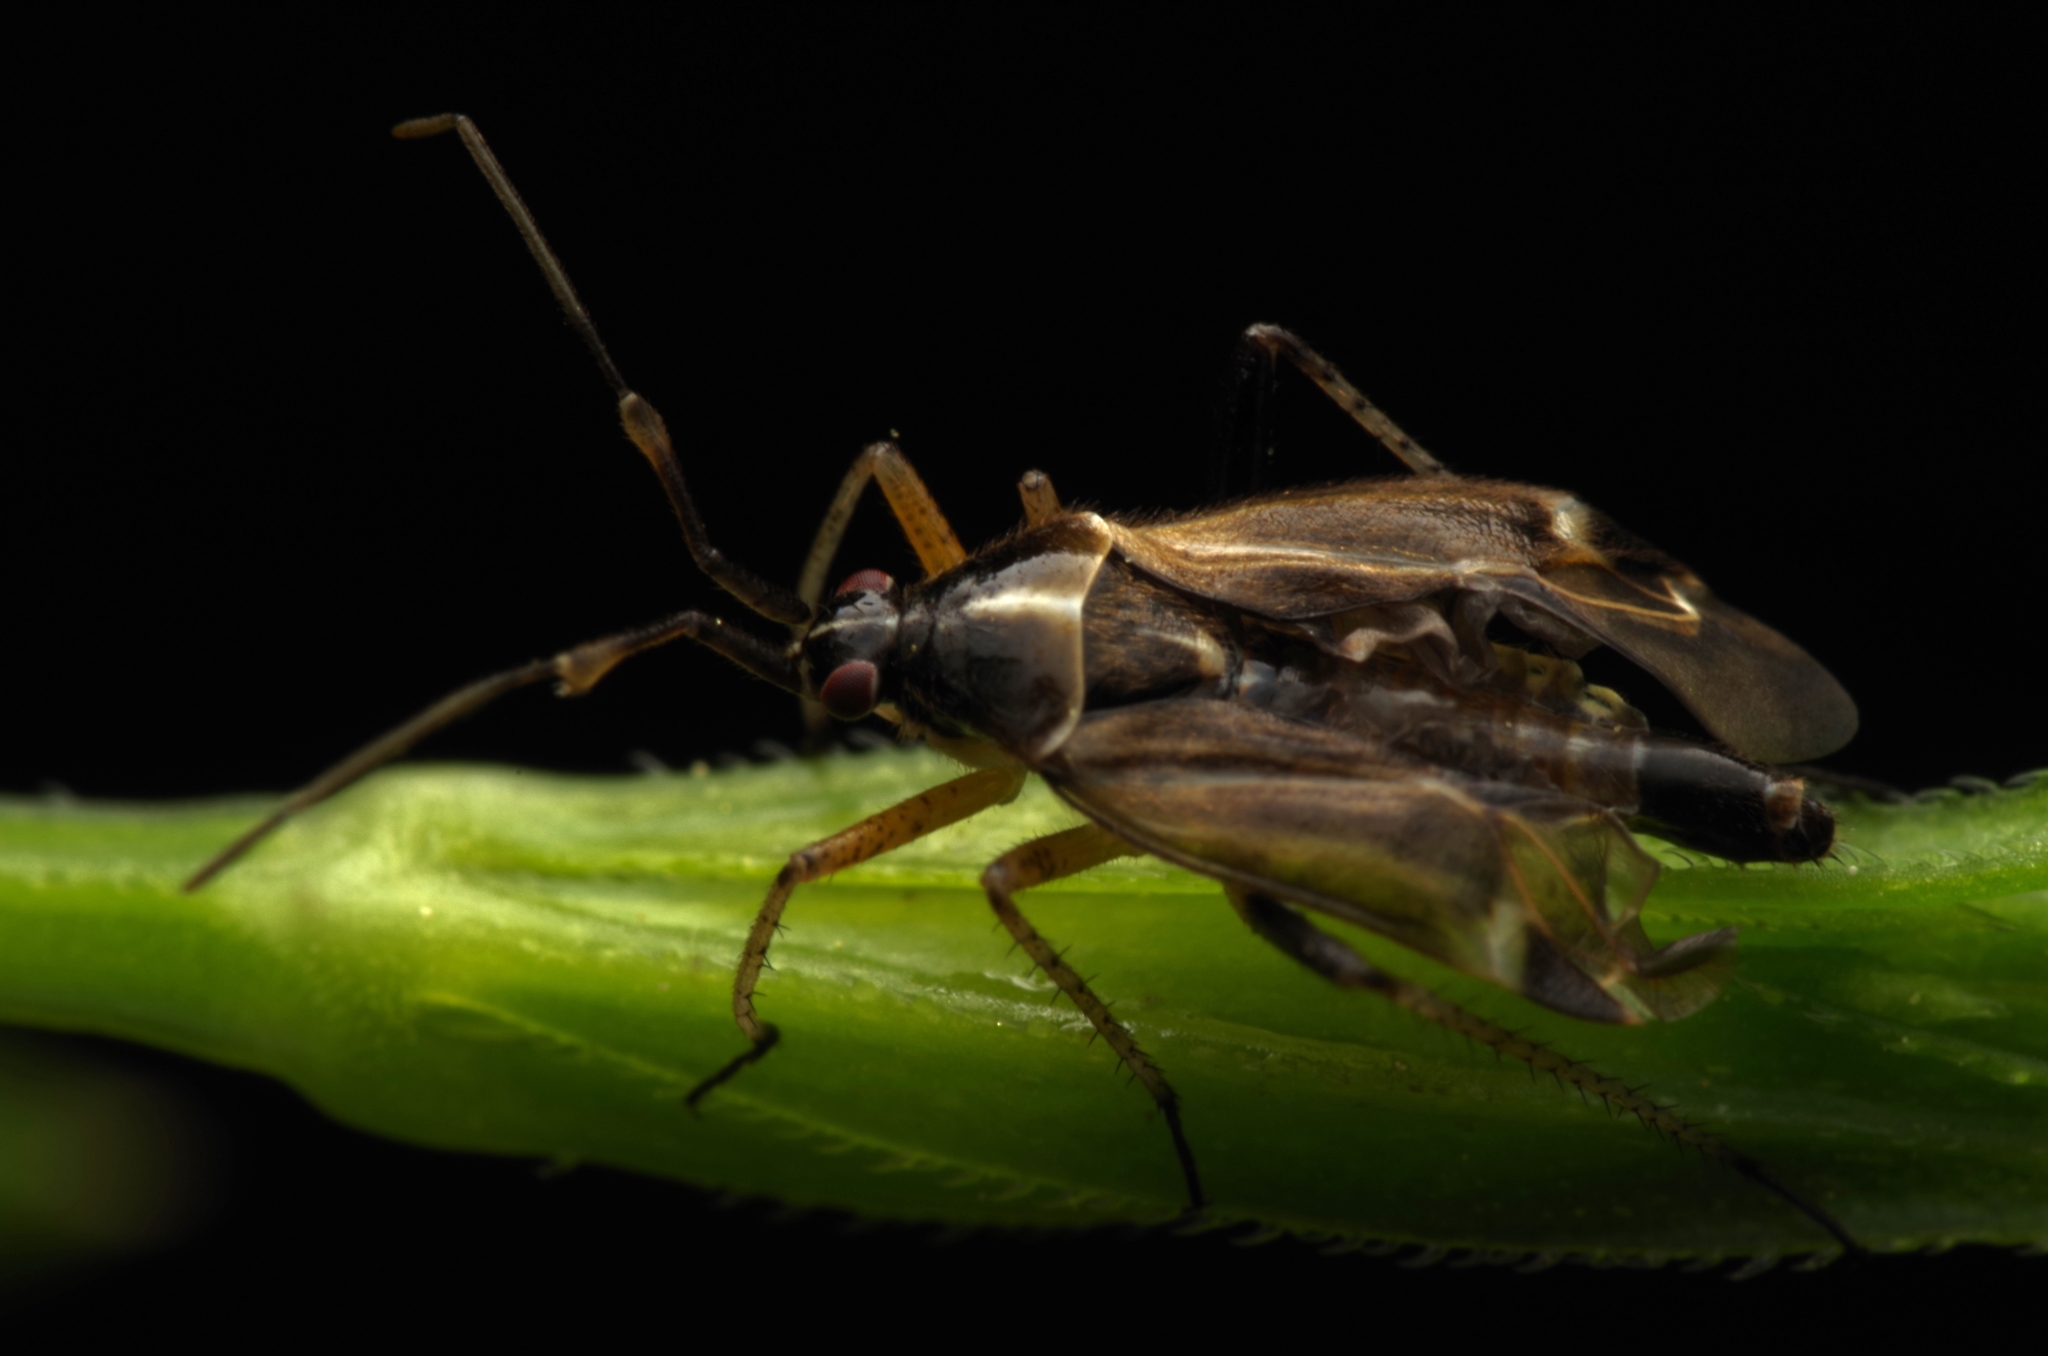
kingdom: Animalia
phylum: Arthropoda
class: Insecta
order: Hemiptera
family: Miridae
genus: Harpocera
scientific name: Harpocera thoracica
